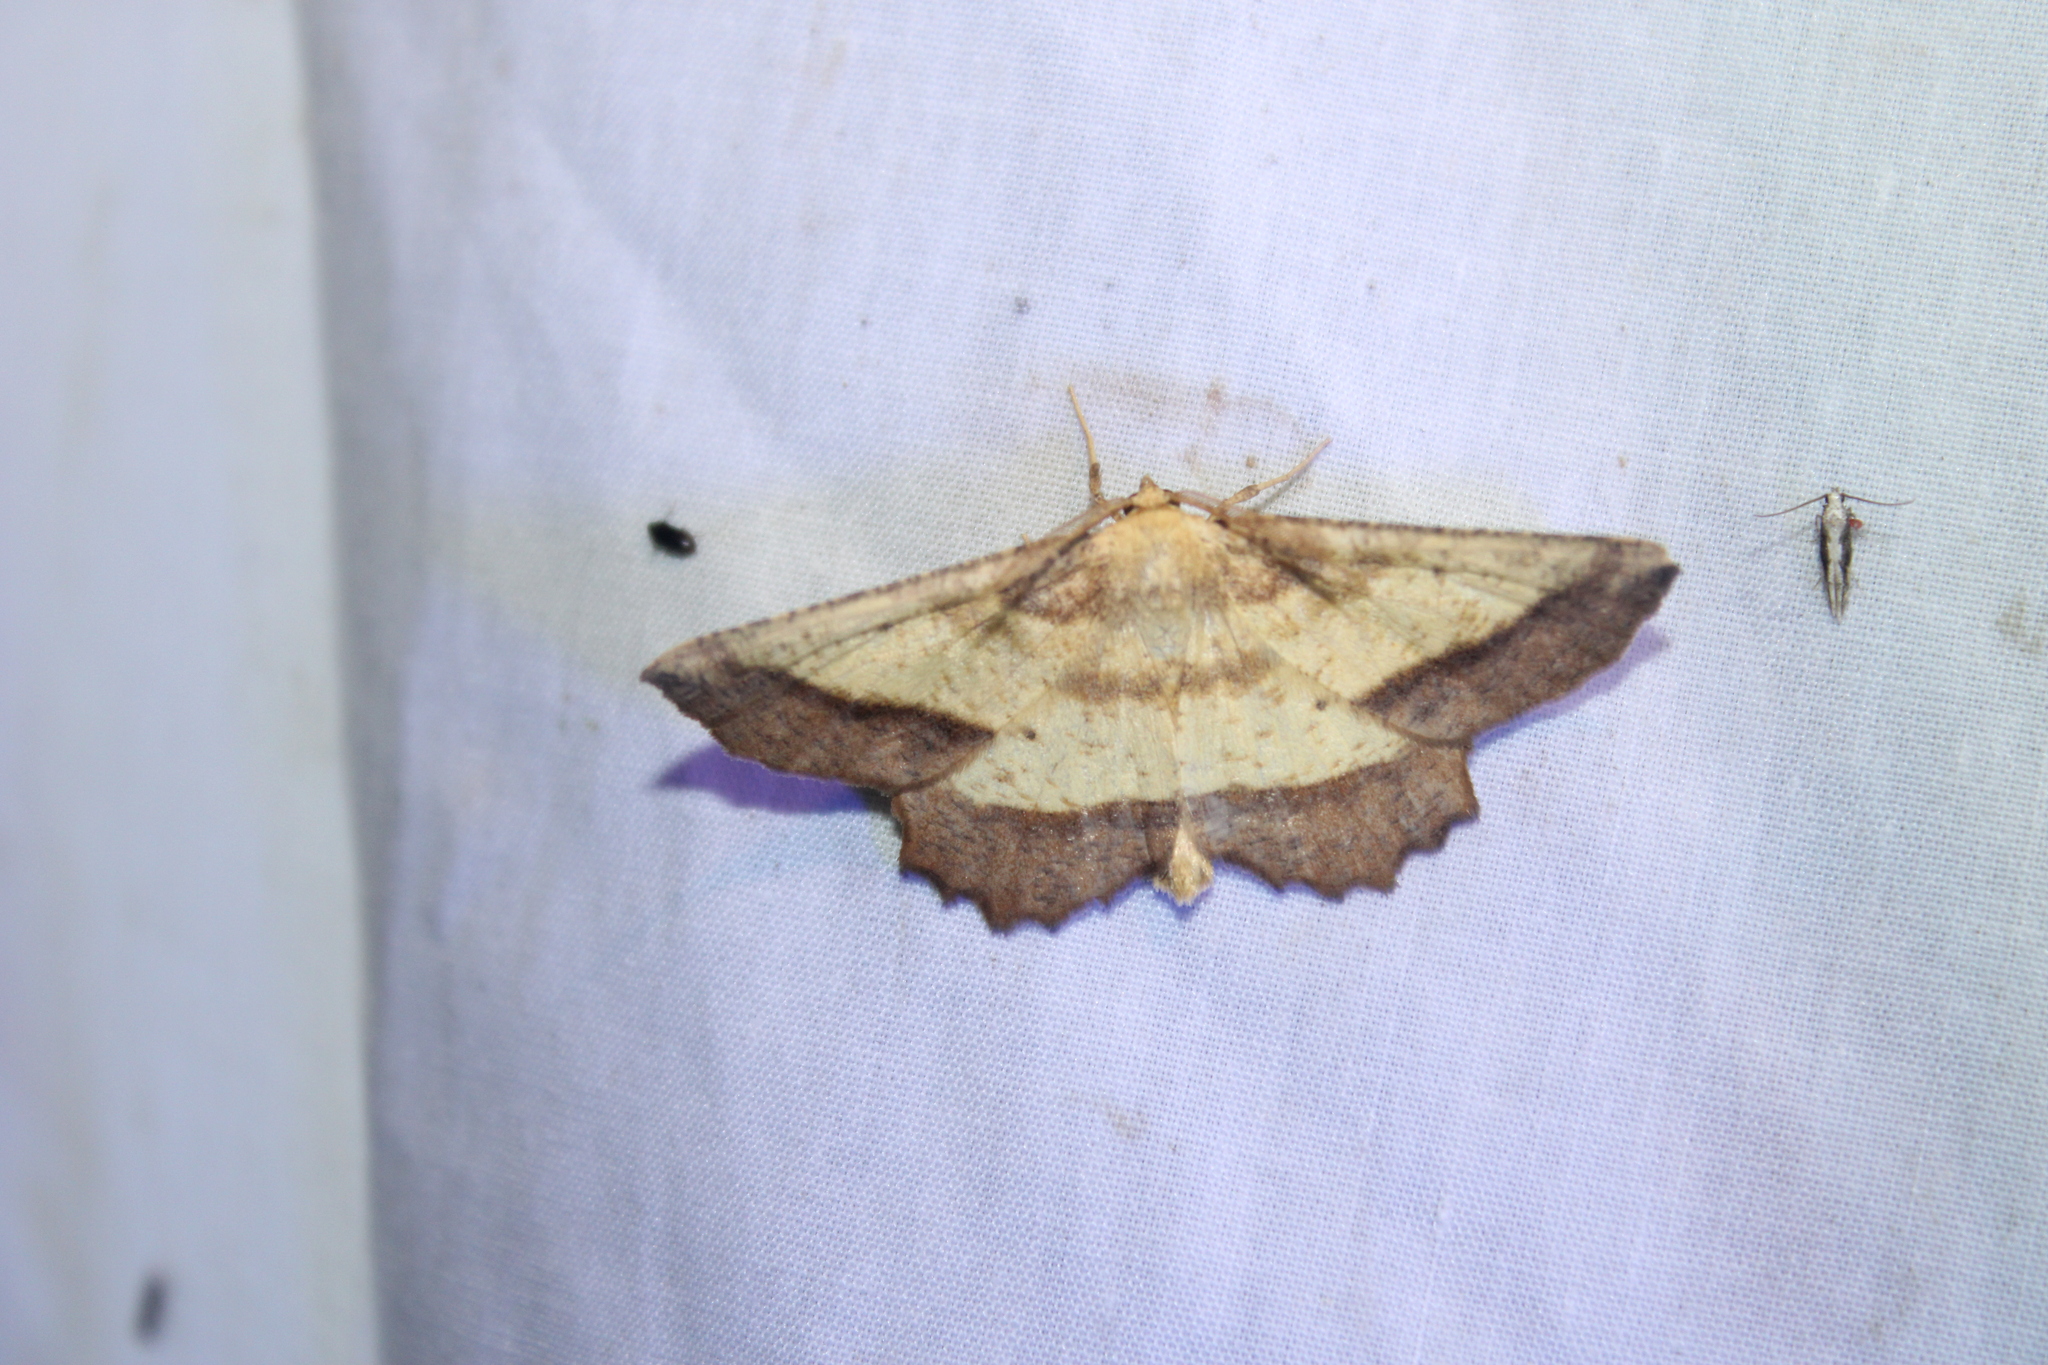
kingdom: Animalia
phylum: Arthropoda
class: Insecta
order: Lepidoptera
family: Geometridae
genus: Euchlaena
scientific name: Euchlaena serrata
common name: Saw wing
